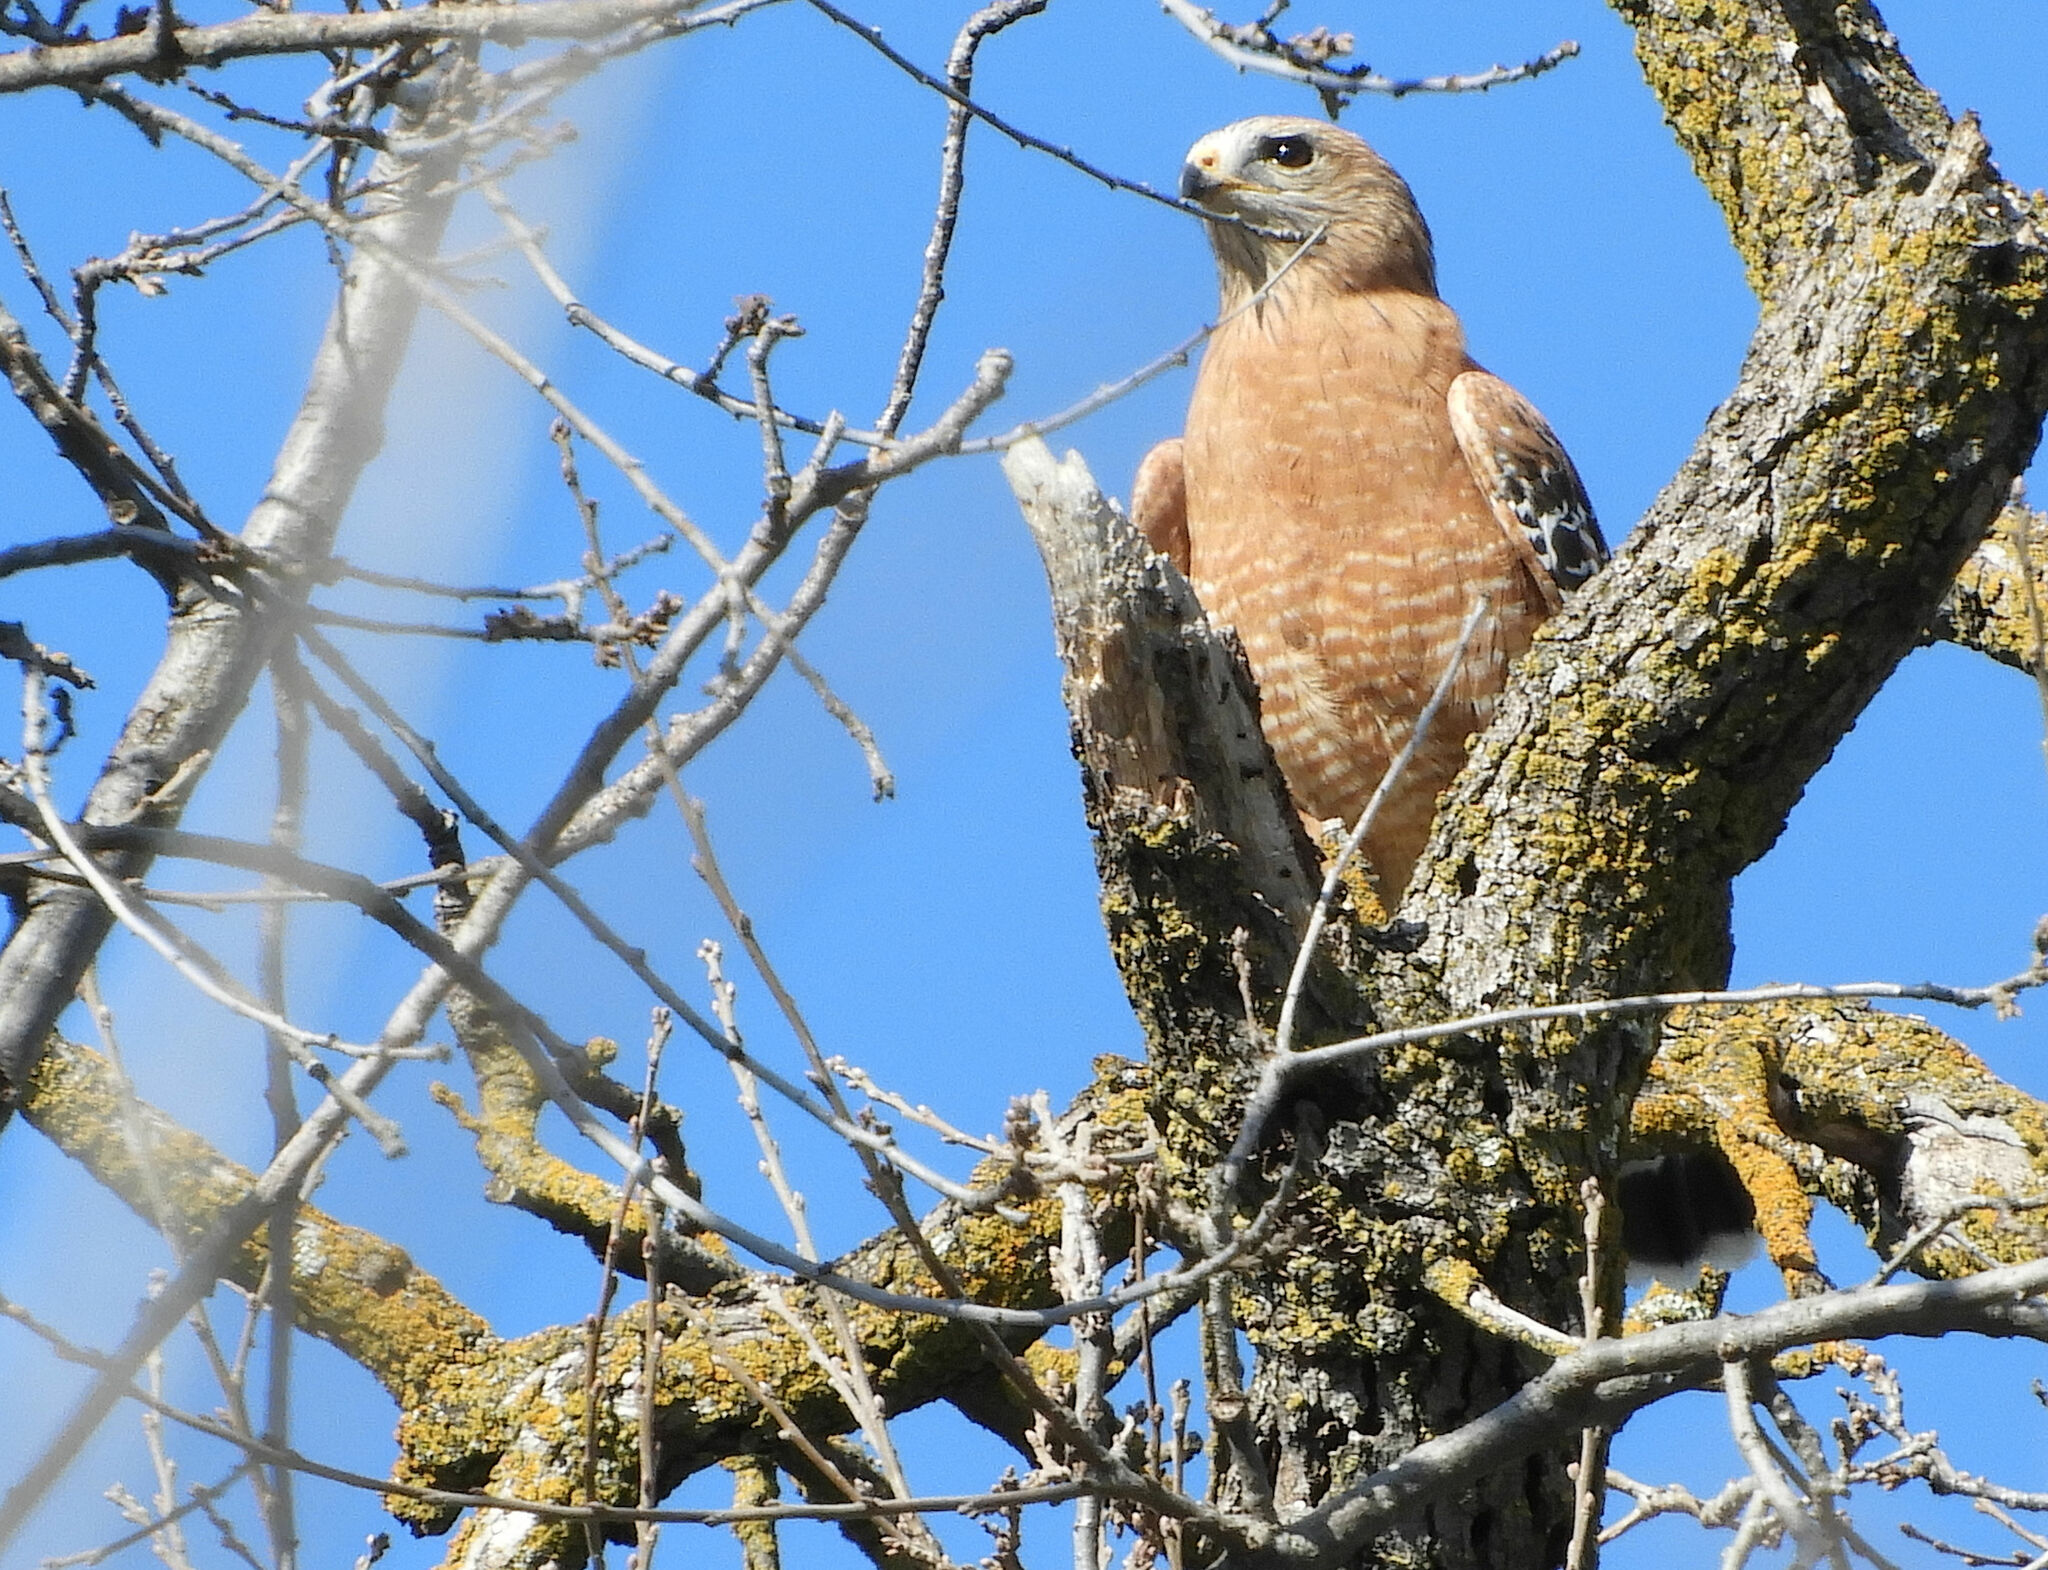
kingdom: Animalia
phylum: Chordata
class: Aves
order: Accipitriformes
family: Accipitridae
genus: Buteo
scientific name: Buteo lineatus
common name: Red-shouldered hawk
